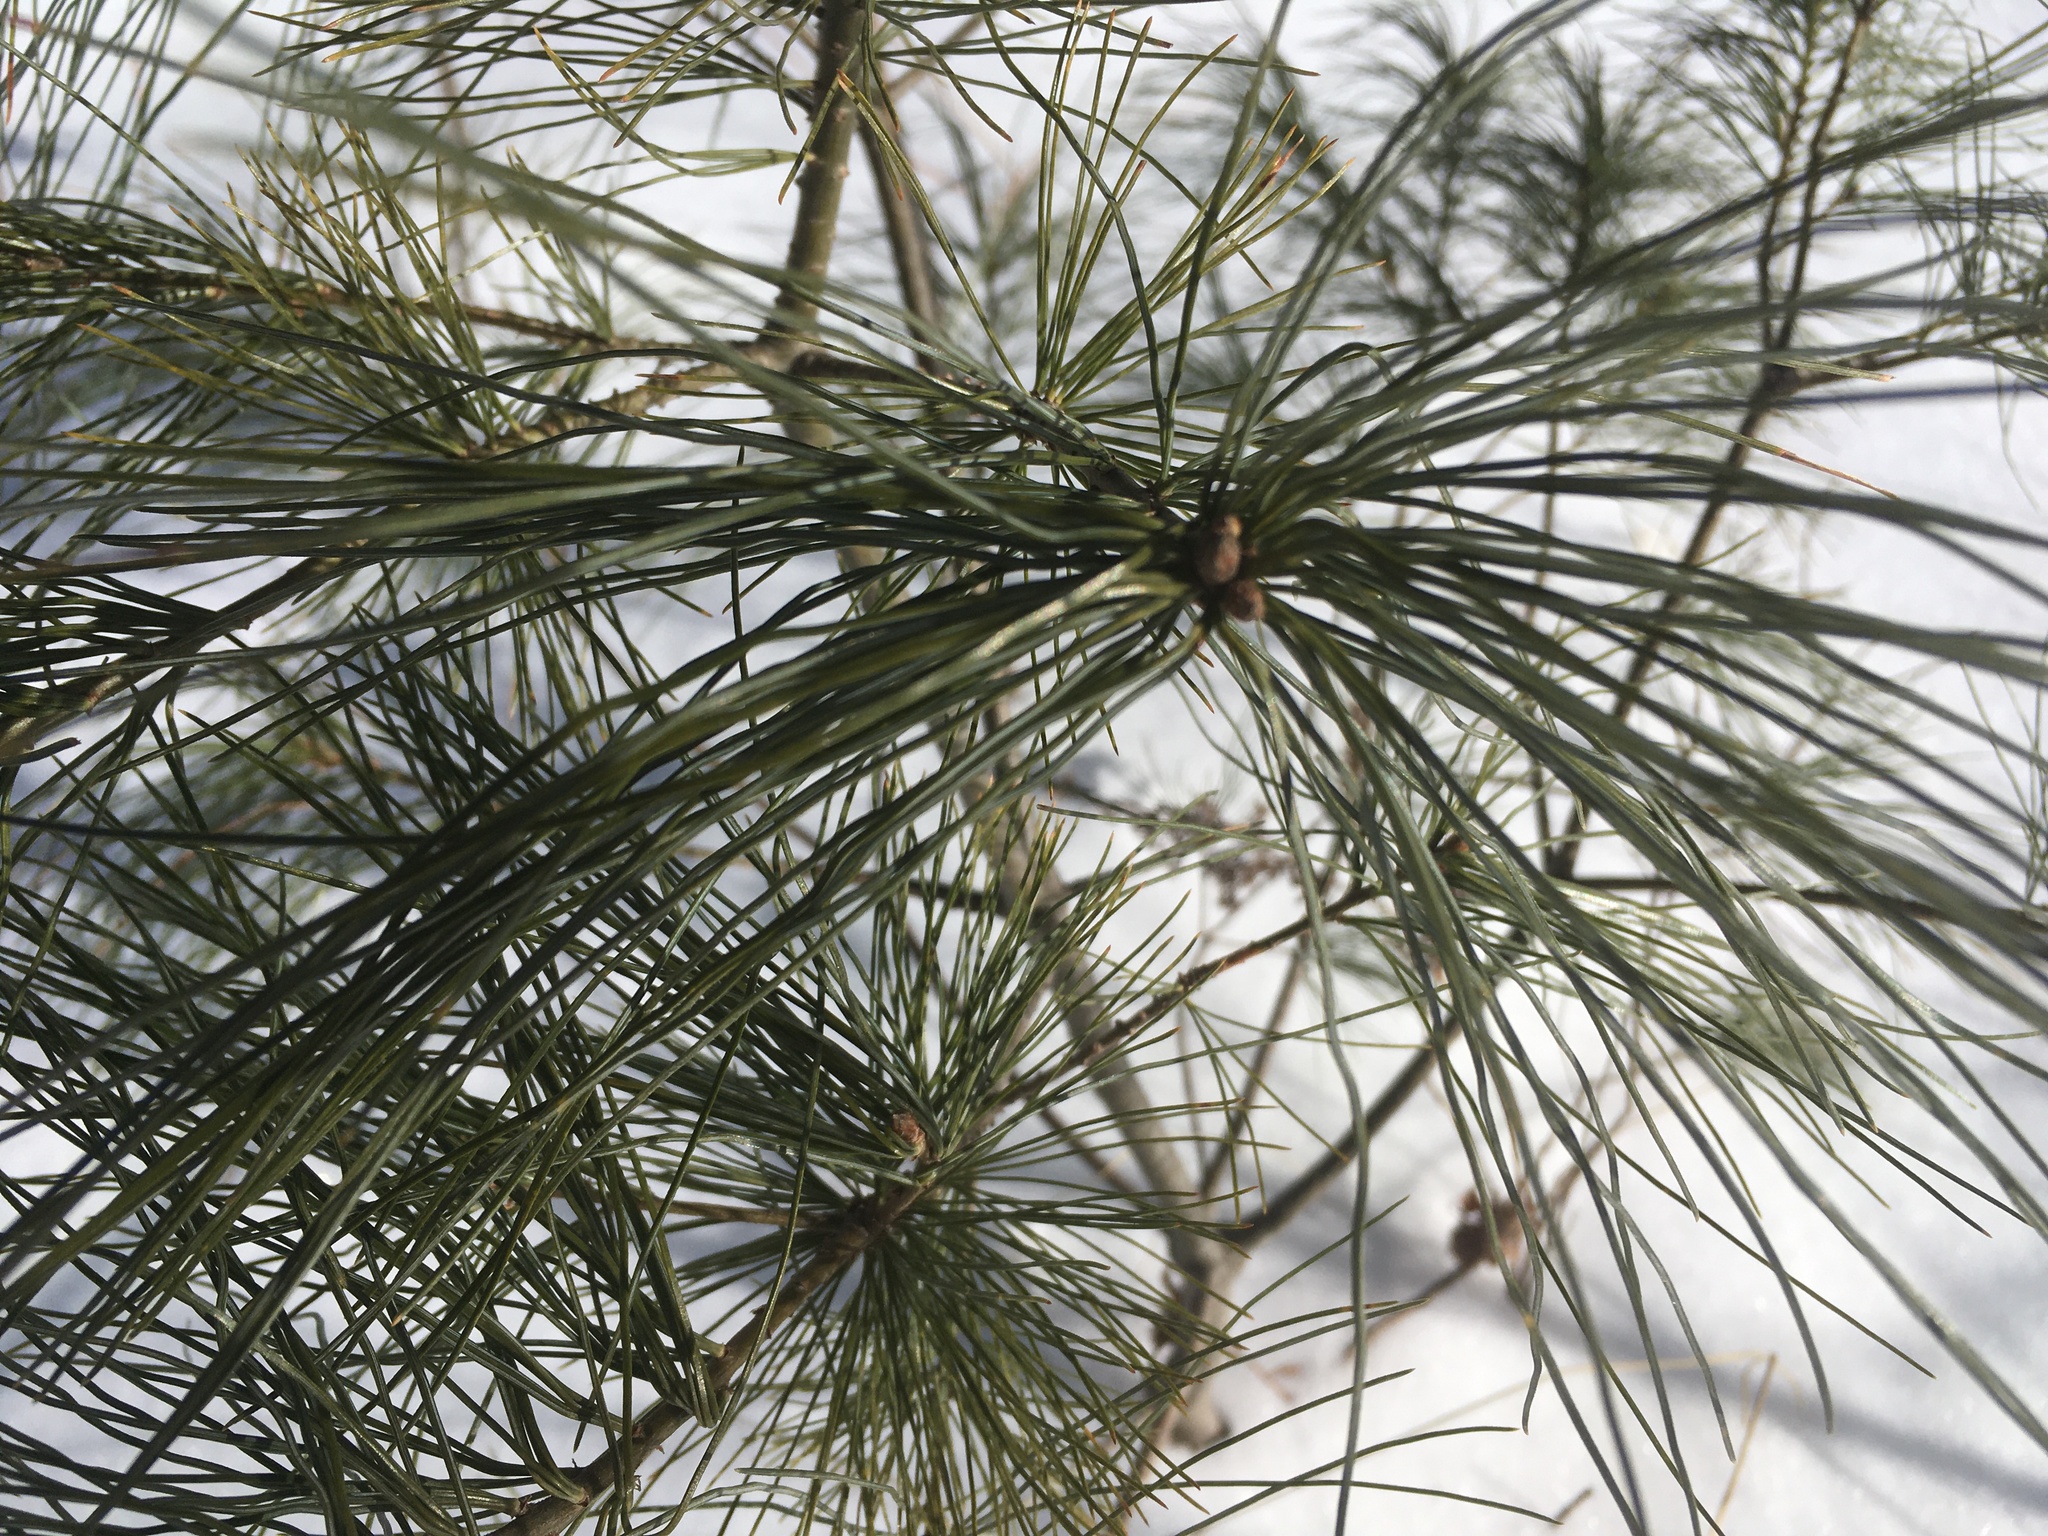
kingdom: Plantae
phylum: Tracheophyta
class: Pinopsida
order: Pinales
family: Pinaceae
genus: Pinus
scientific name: Pinus strobus
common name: Weymouth pine
